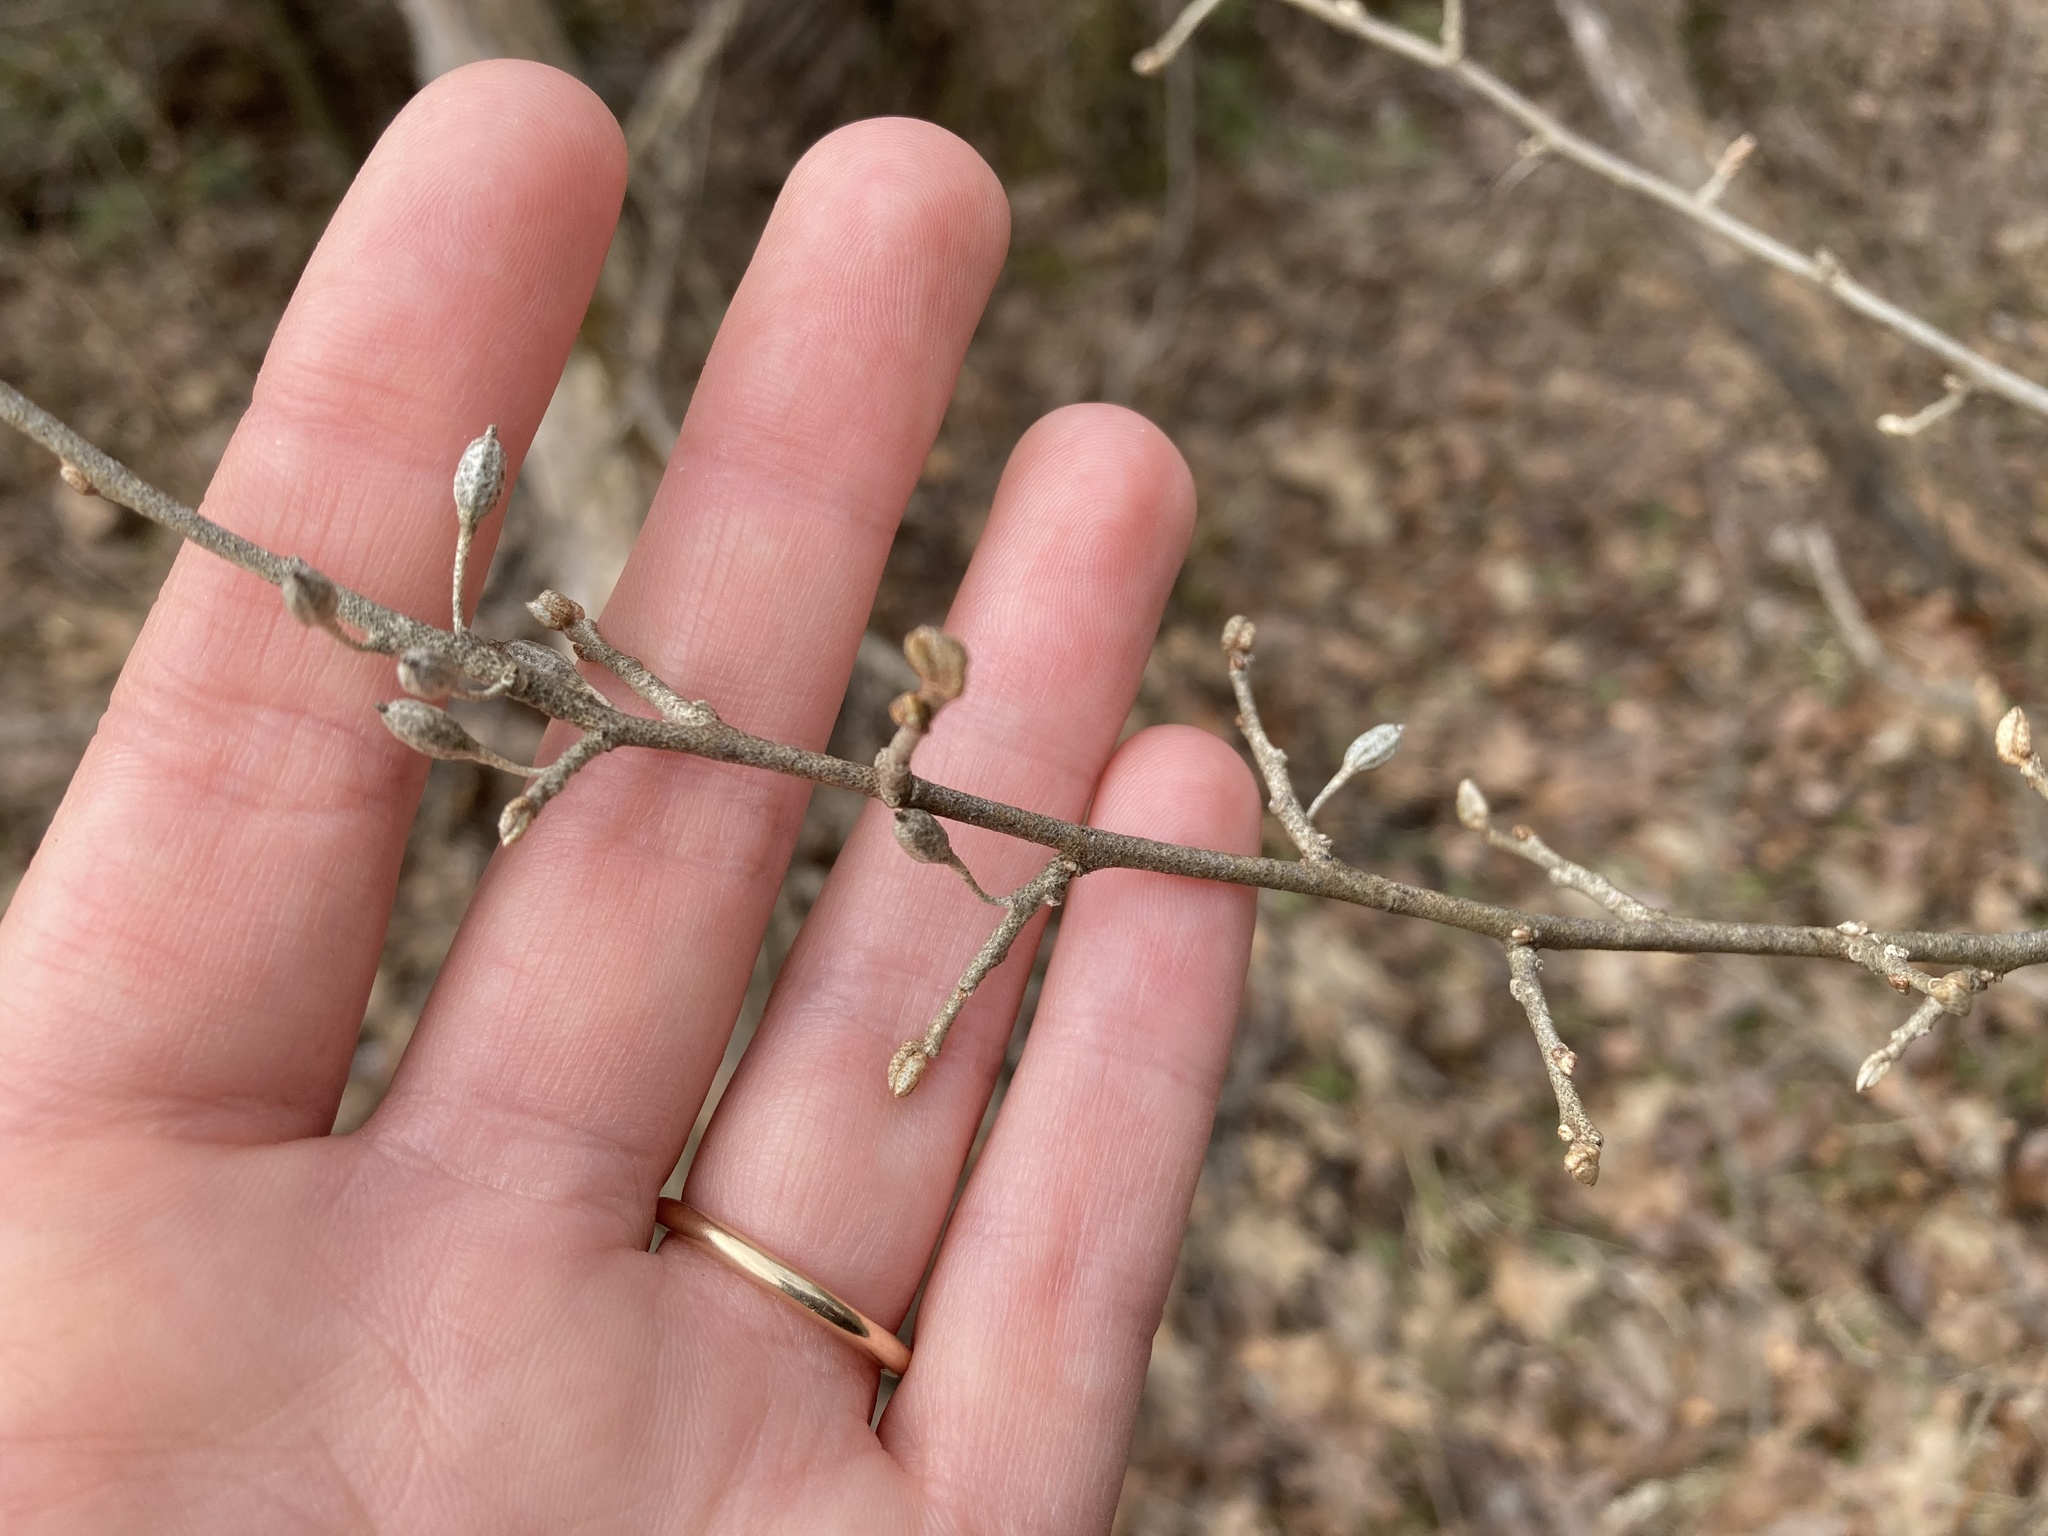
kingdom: Plantae
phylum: Tracheophyta
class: Magnoliopsida
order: Rosales
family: Elaeagnaceae
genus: Elaeagnus
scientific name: Elaeagnus umbellata
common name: Autumn olive
